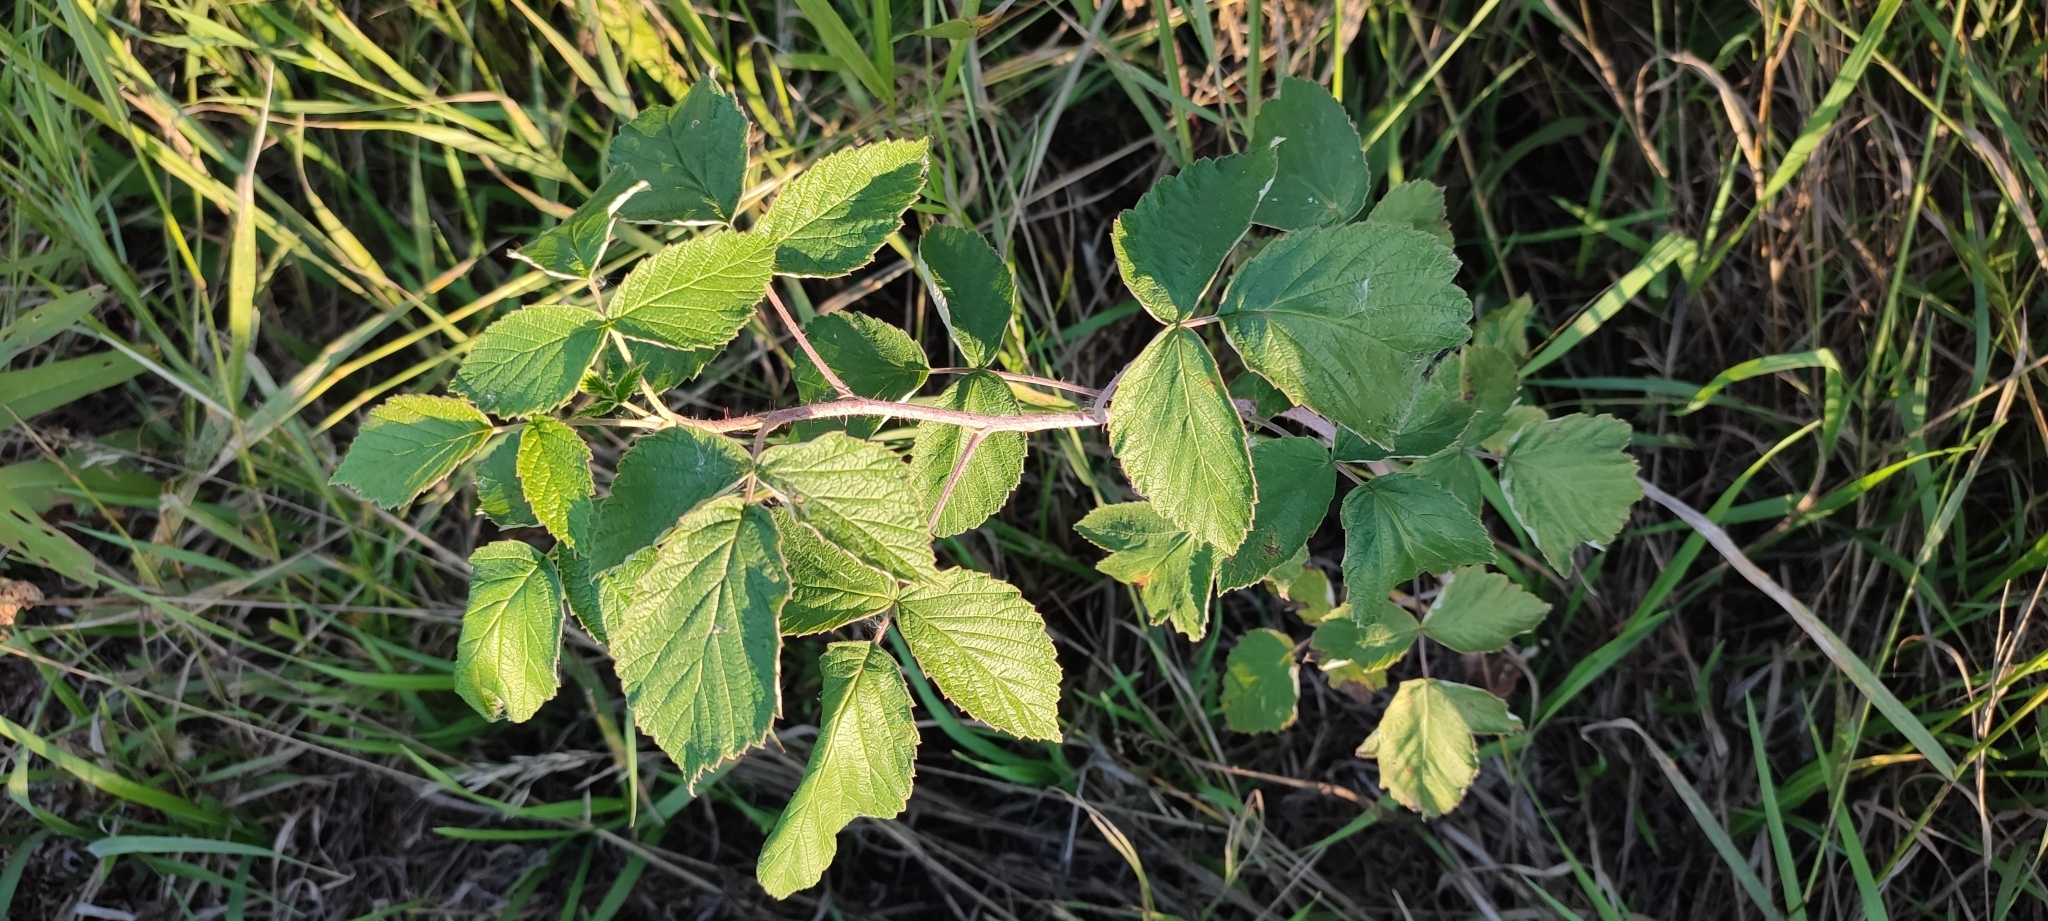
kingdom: Plantae
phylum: Tracheophyta
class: Magnoliopsida
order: Rosales
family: Rosaceae
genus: Rubus
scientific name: Rubus idaeus
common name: Raspberry
